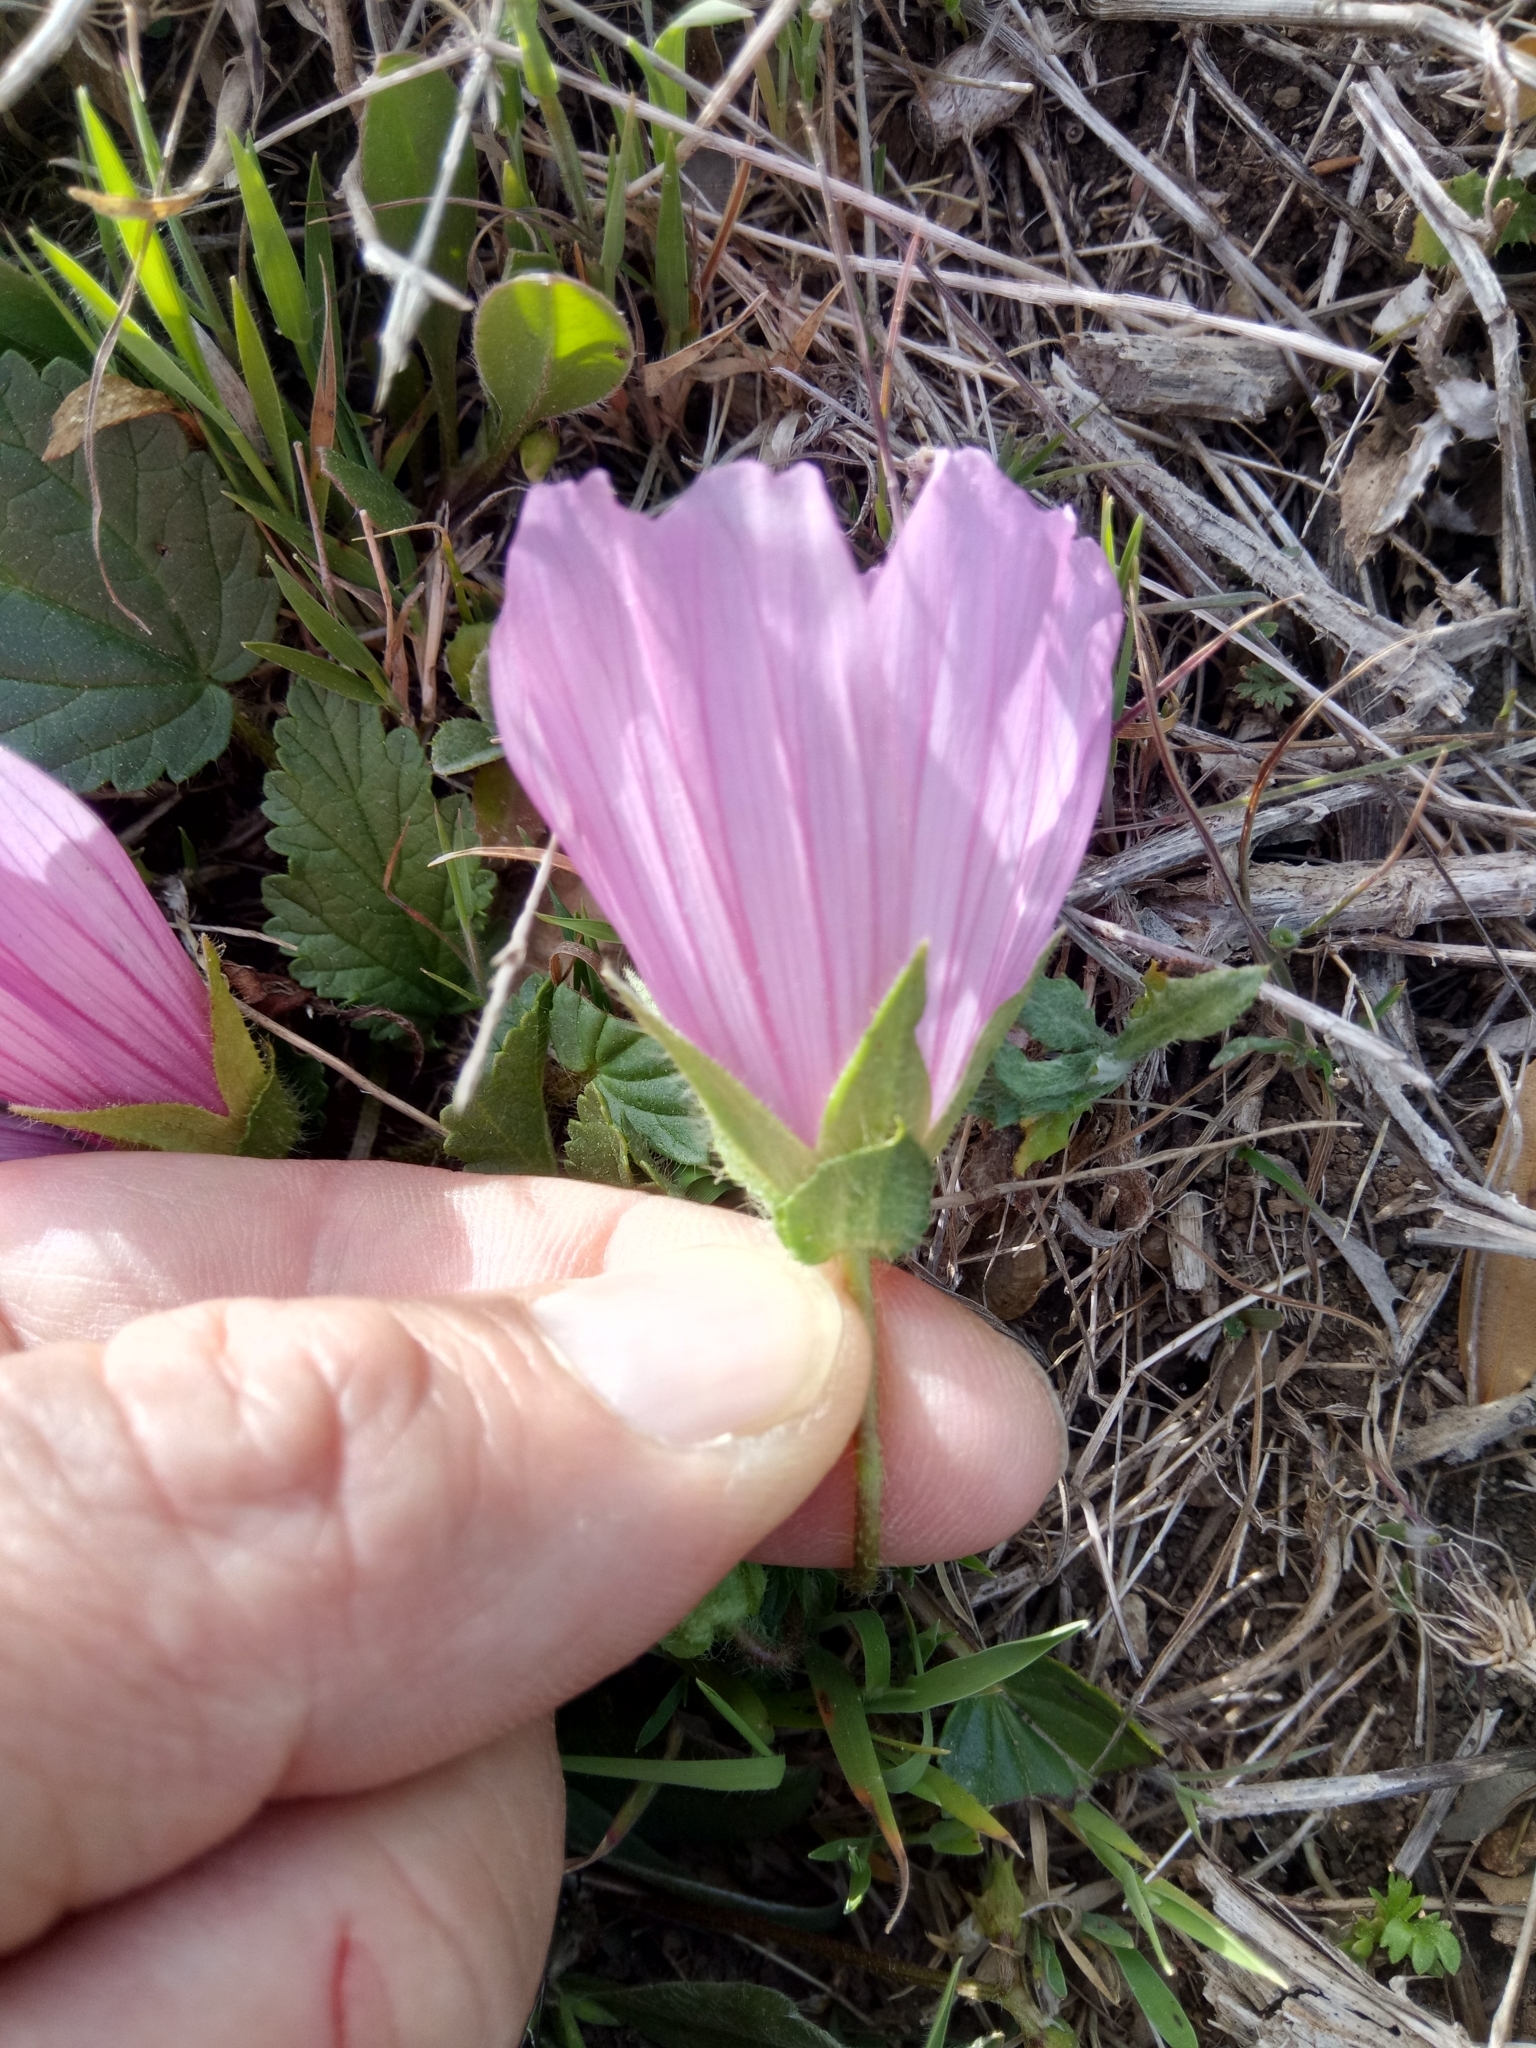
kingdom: Plantae
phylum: Tracheophyta
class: Magnoliopsida
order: Malvales
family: Malvaceae
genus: Malope
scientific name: Malope malacoides
